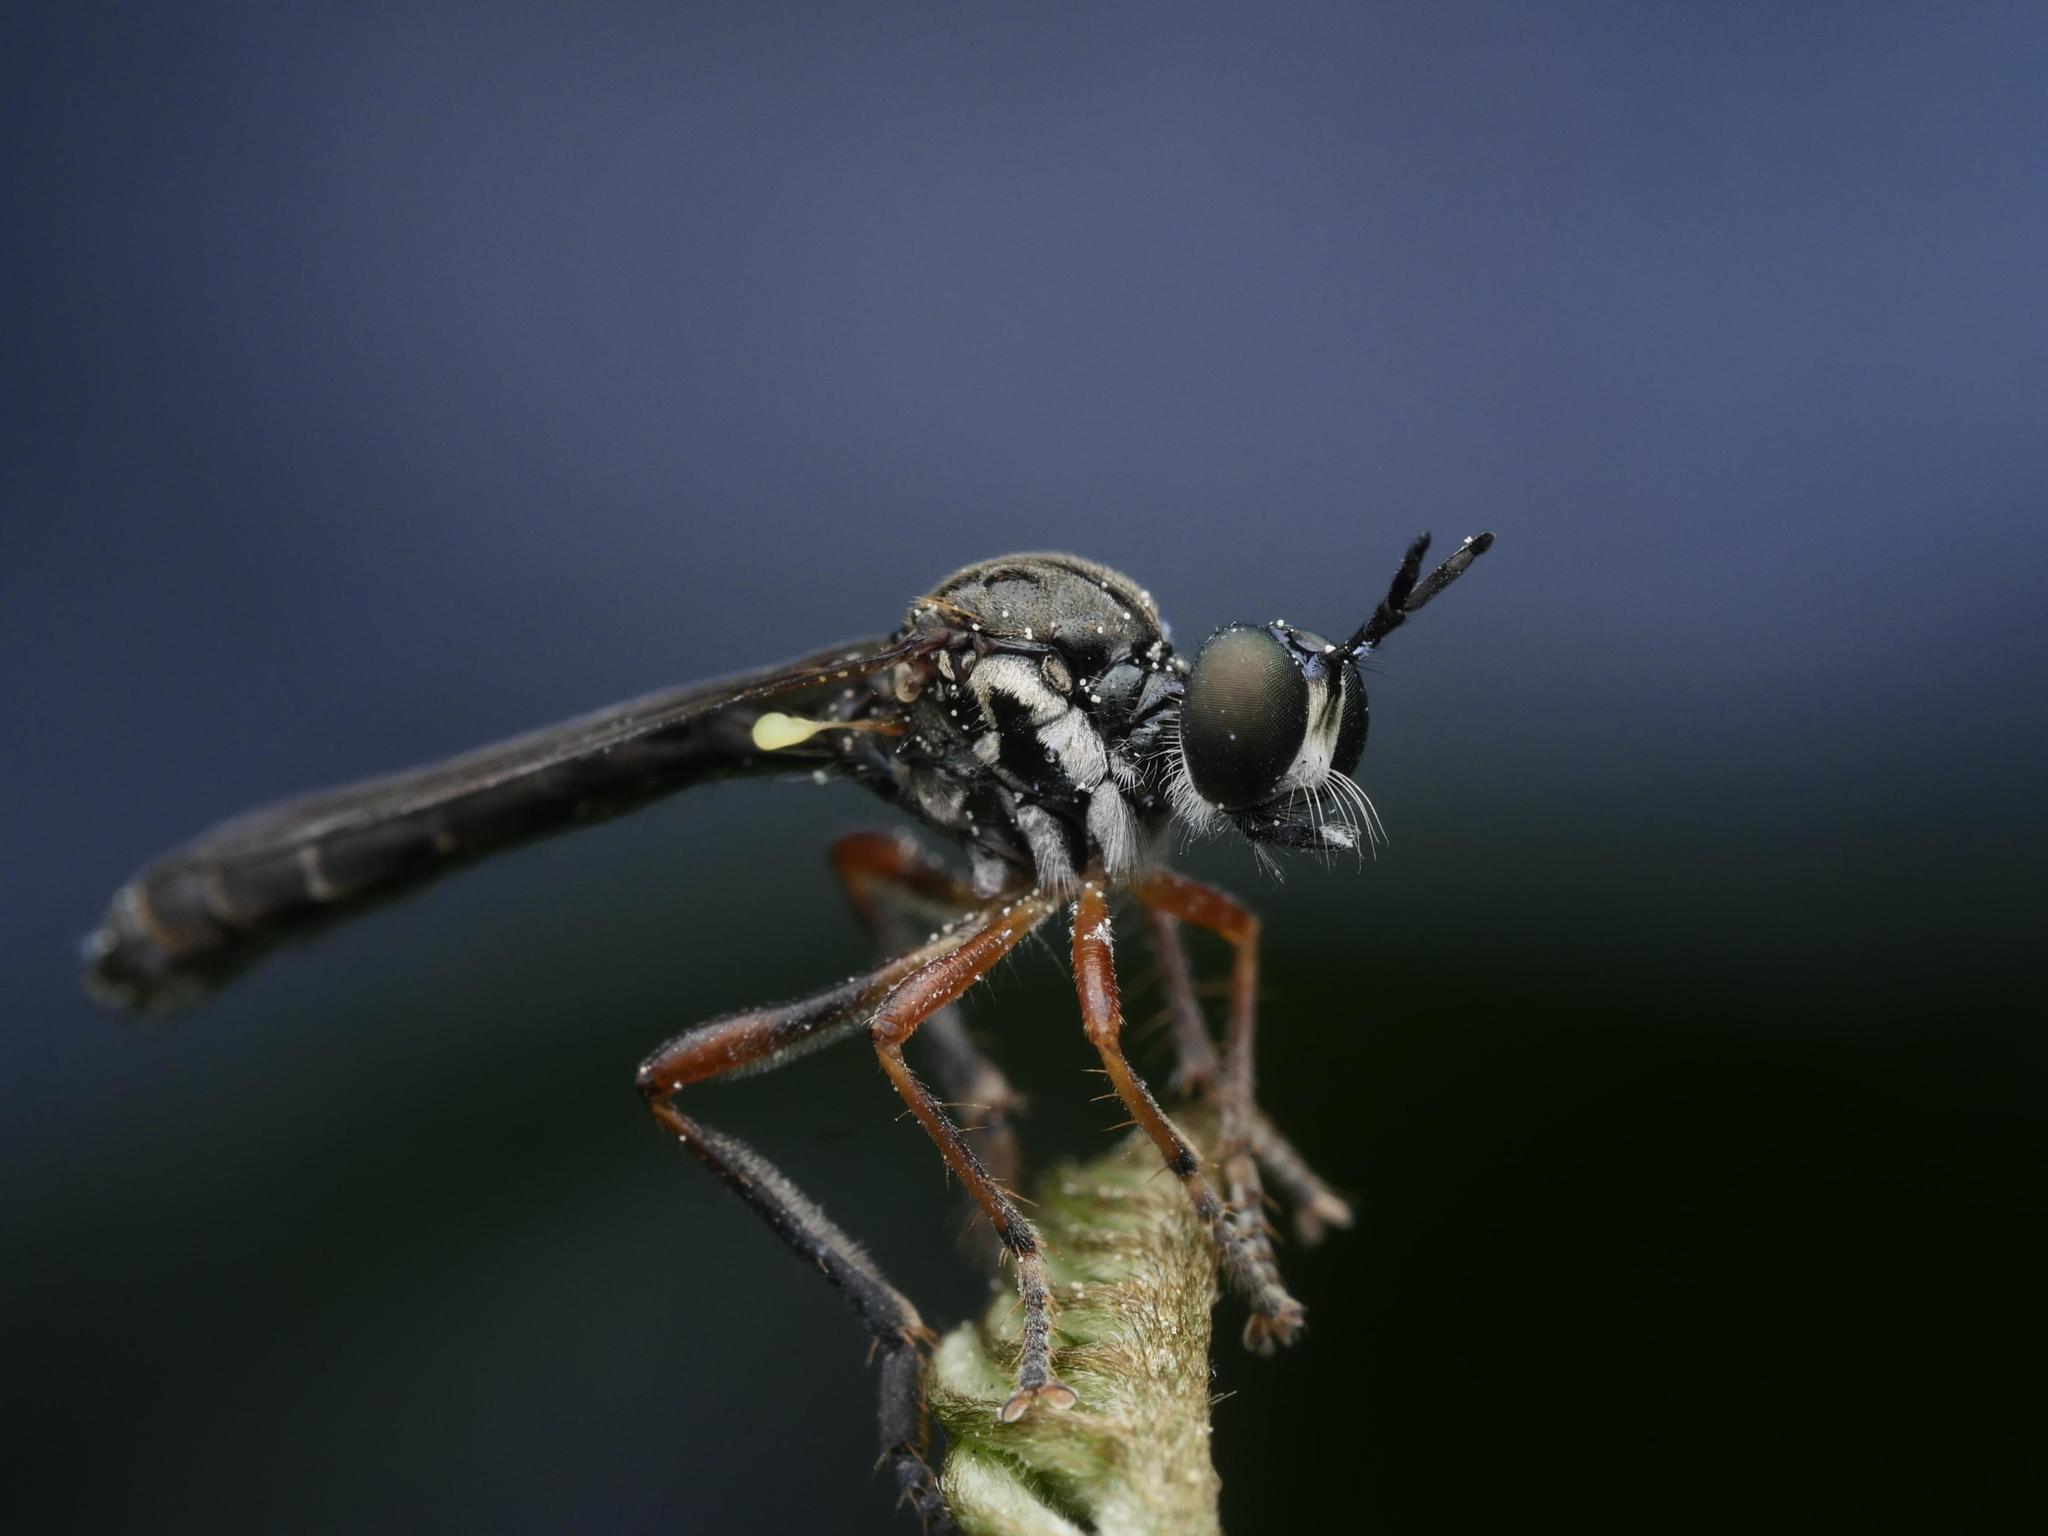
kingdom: Animalia
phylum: Arthropoda
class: Insecta
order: Diptera
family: Asilidae
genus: Dioctria
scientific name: Dioctria hyalipennis
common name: Stripe-legged robberfly
